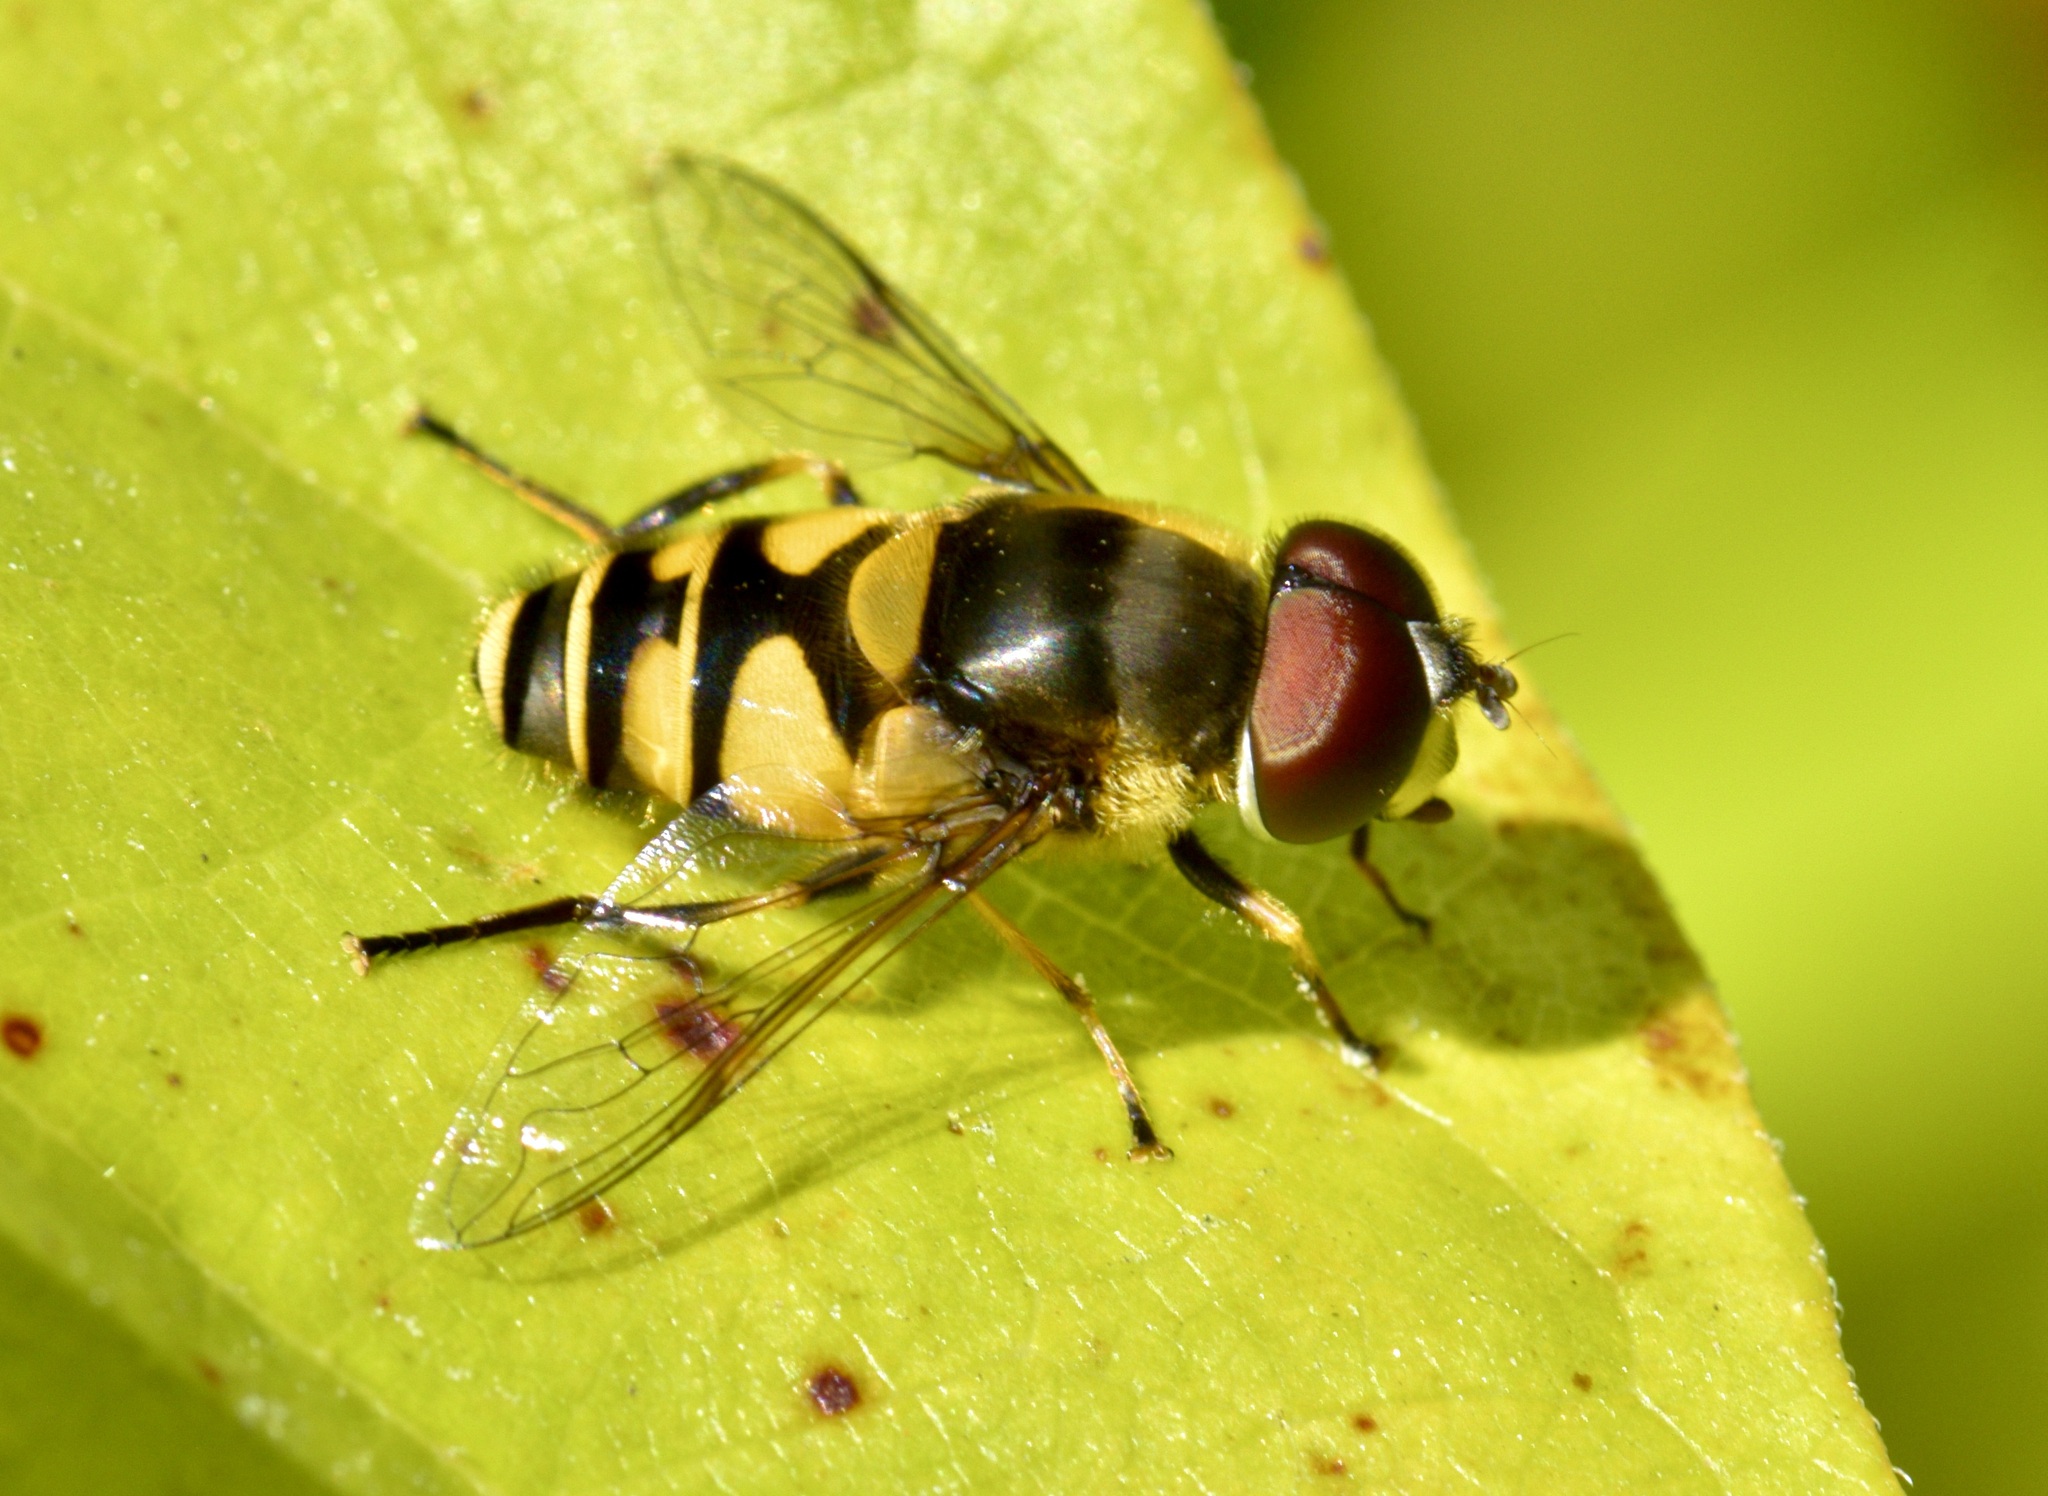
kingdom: Animalia
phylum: Arthropoda
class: Insecta
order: Diptera
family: Syrphidae
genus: Eristalis
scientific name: Eristalis transversa
